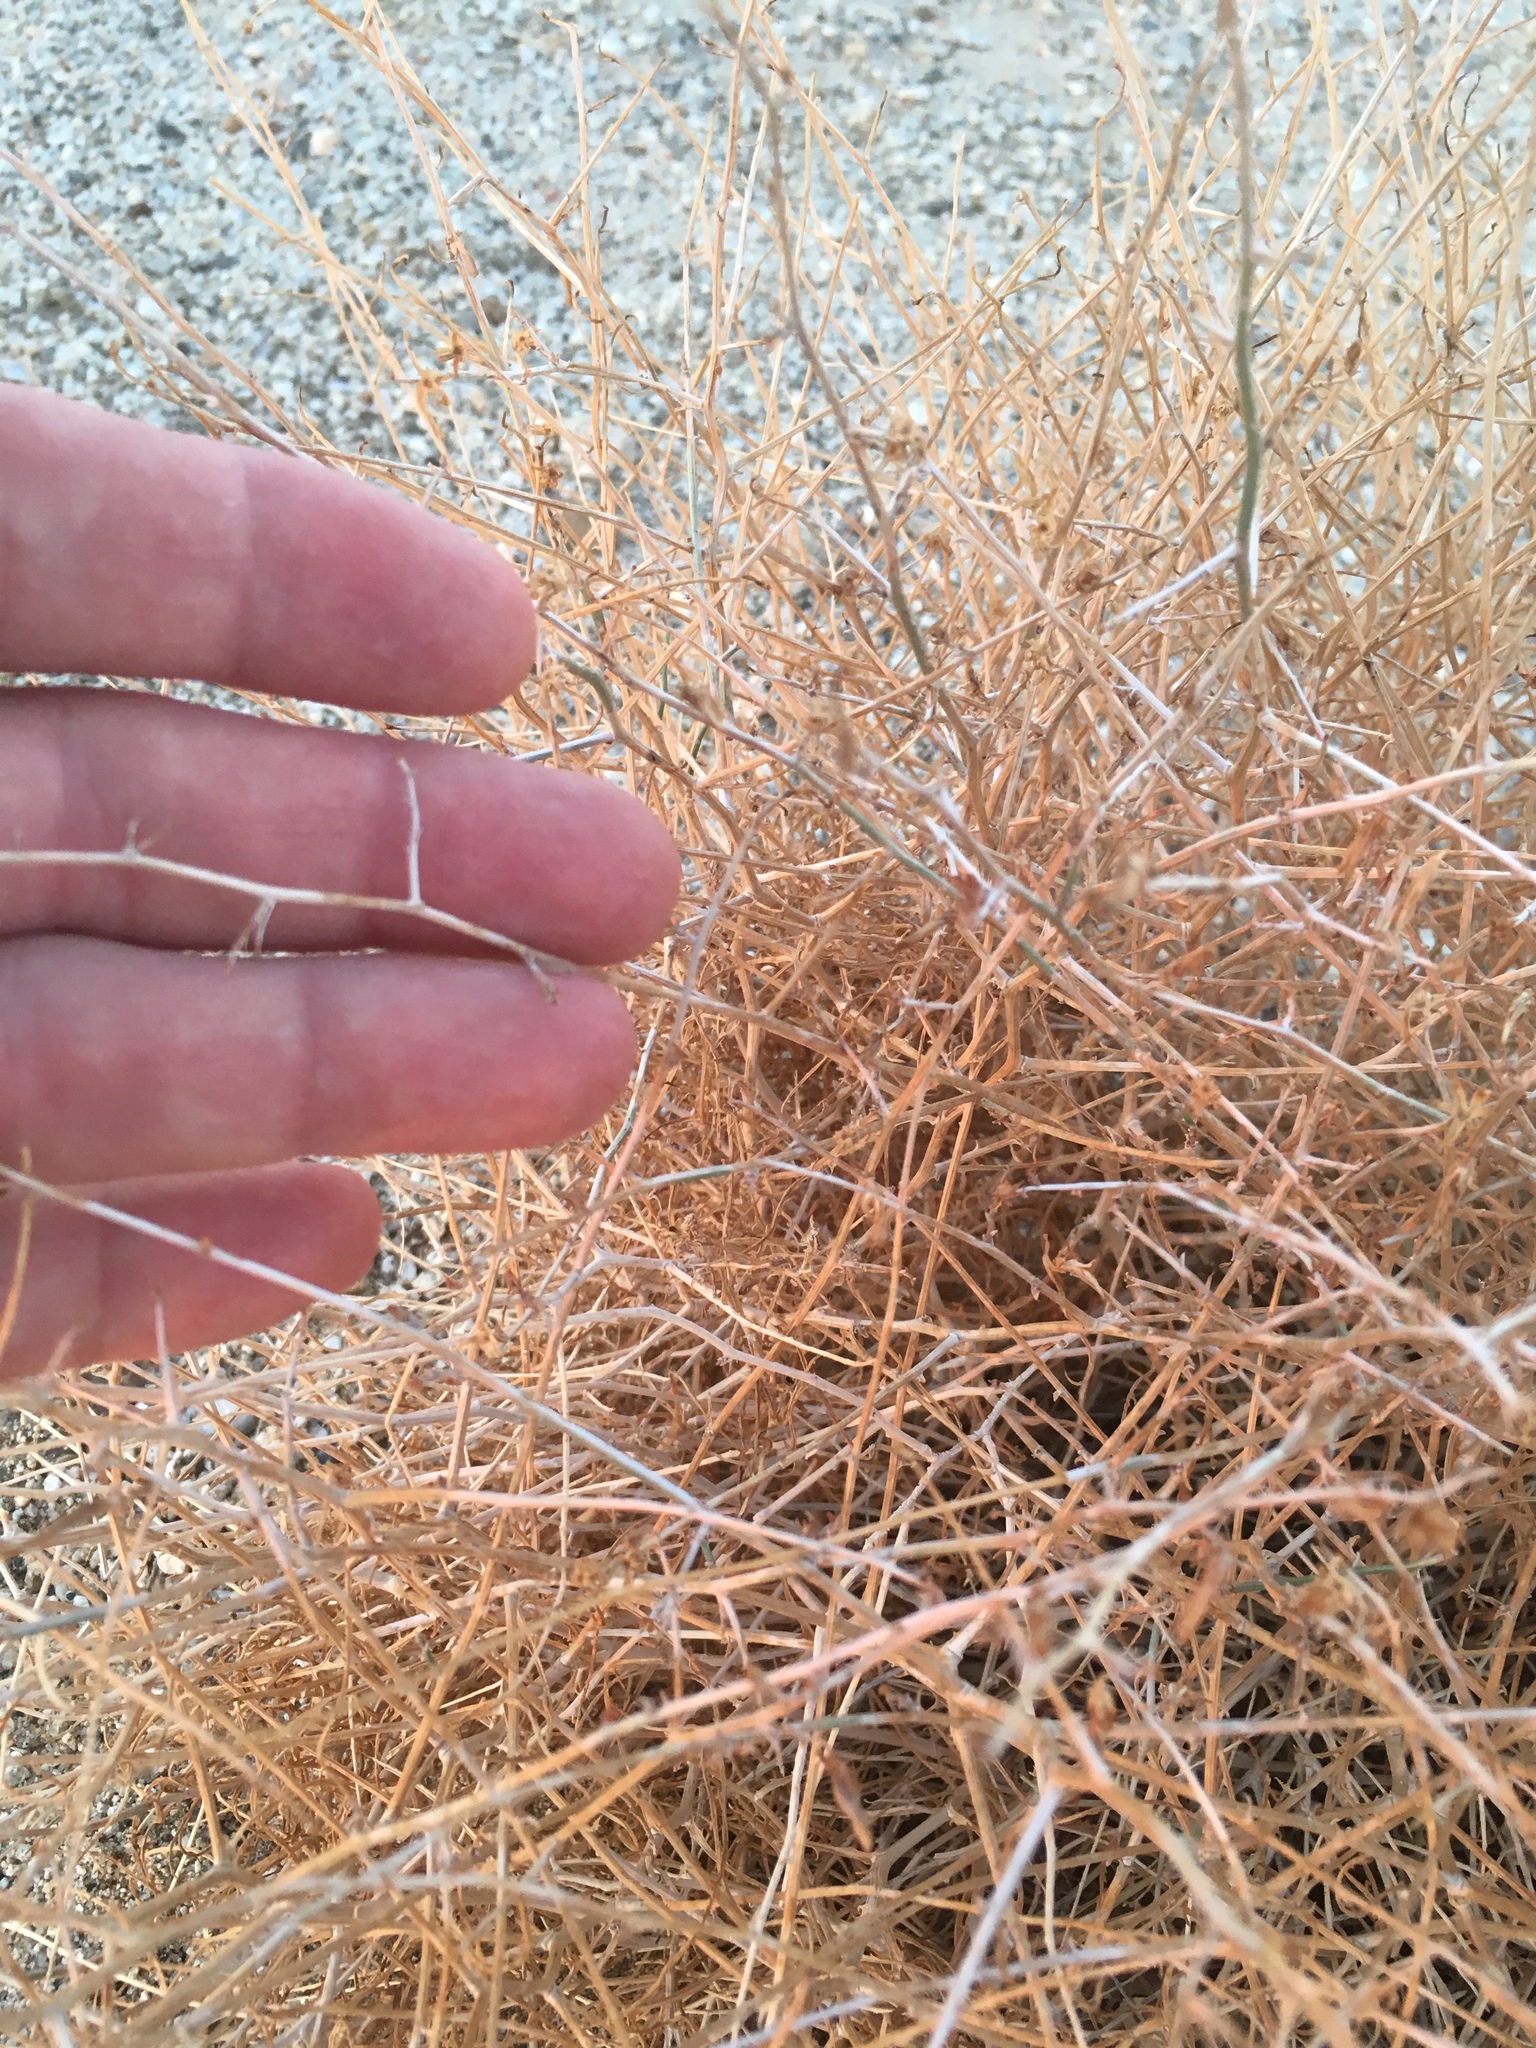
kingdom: Plantae
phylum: Tracheophyta
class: Magnoliopsida
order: Asterales
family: Asteraceae
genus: Stephanomeria
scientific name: Stephanomeria pauciflora
